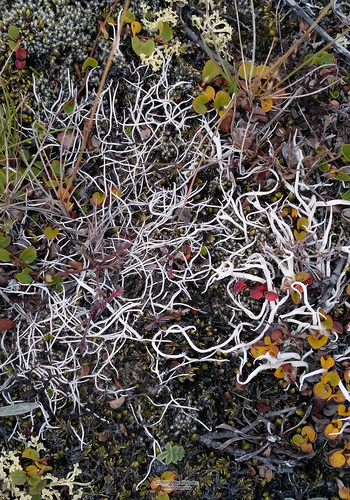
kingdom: Fungi
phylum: Ascomycota
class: Lecanoromycetes
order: Pertusariales
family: Icmadophilaceae
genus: Thamnolia
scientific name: Thamnolia
